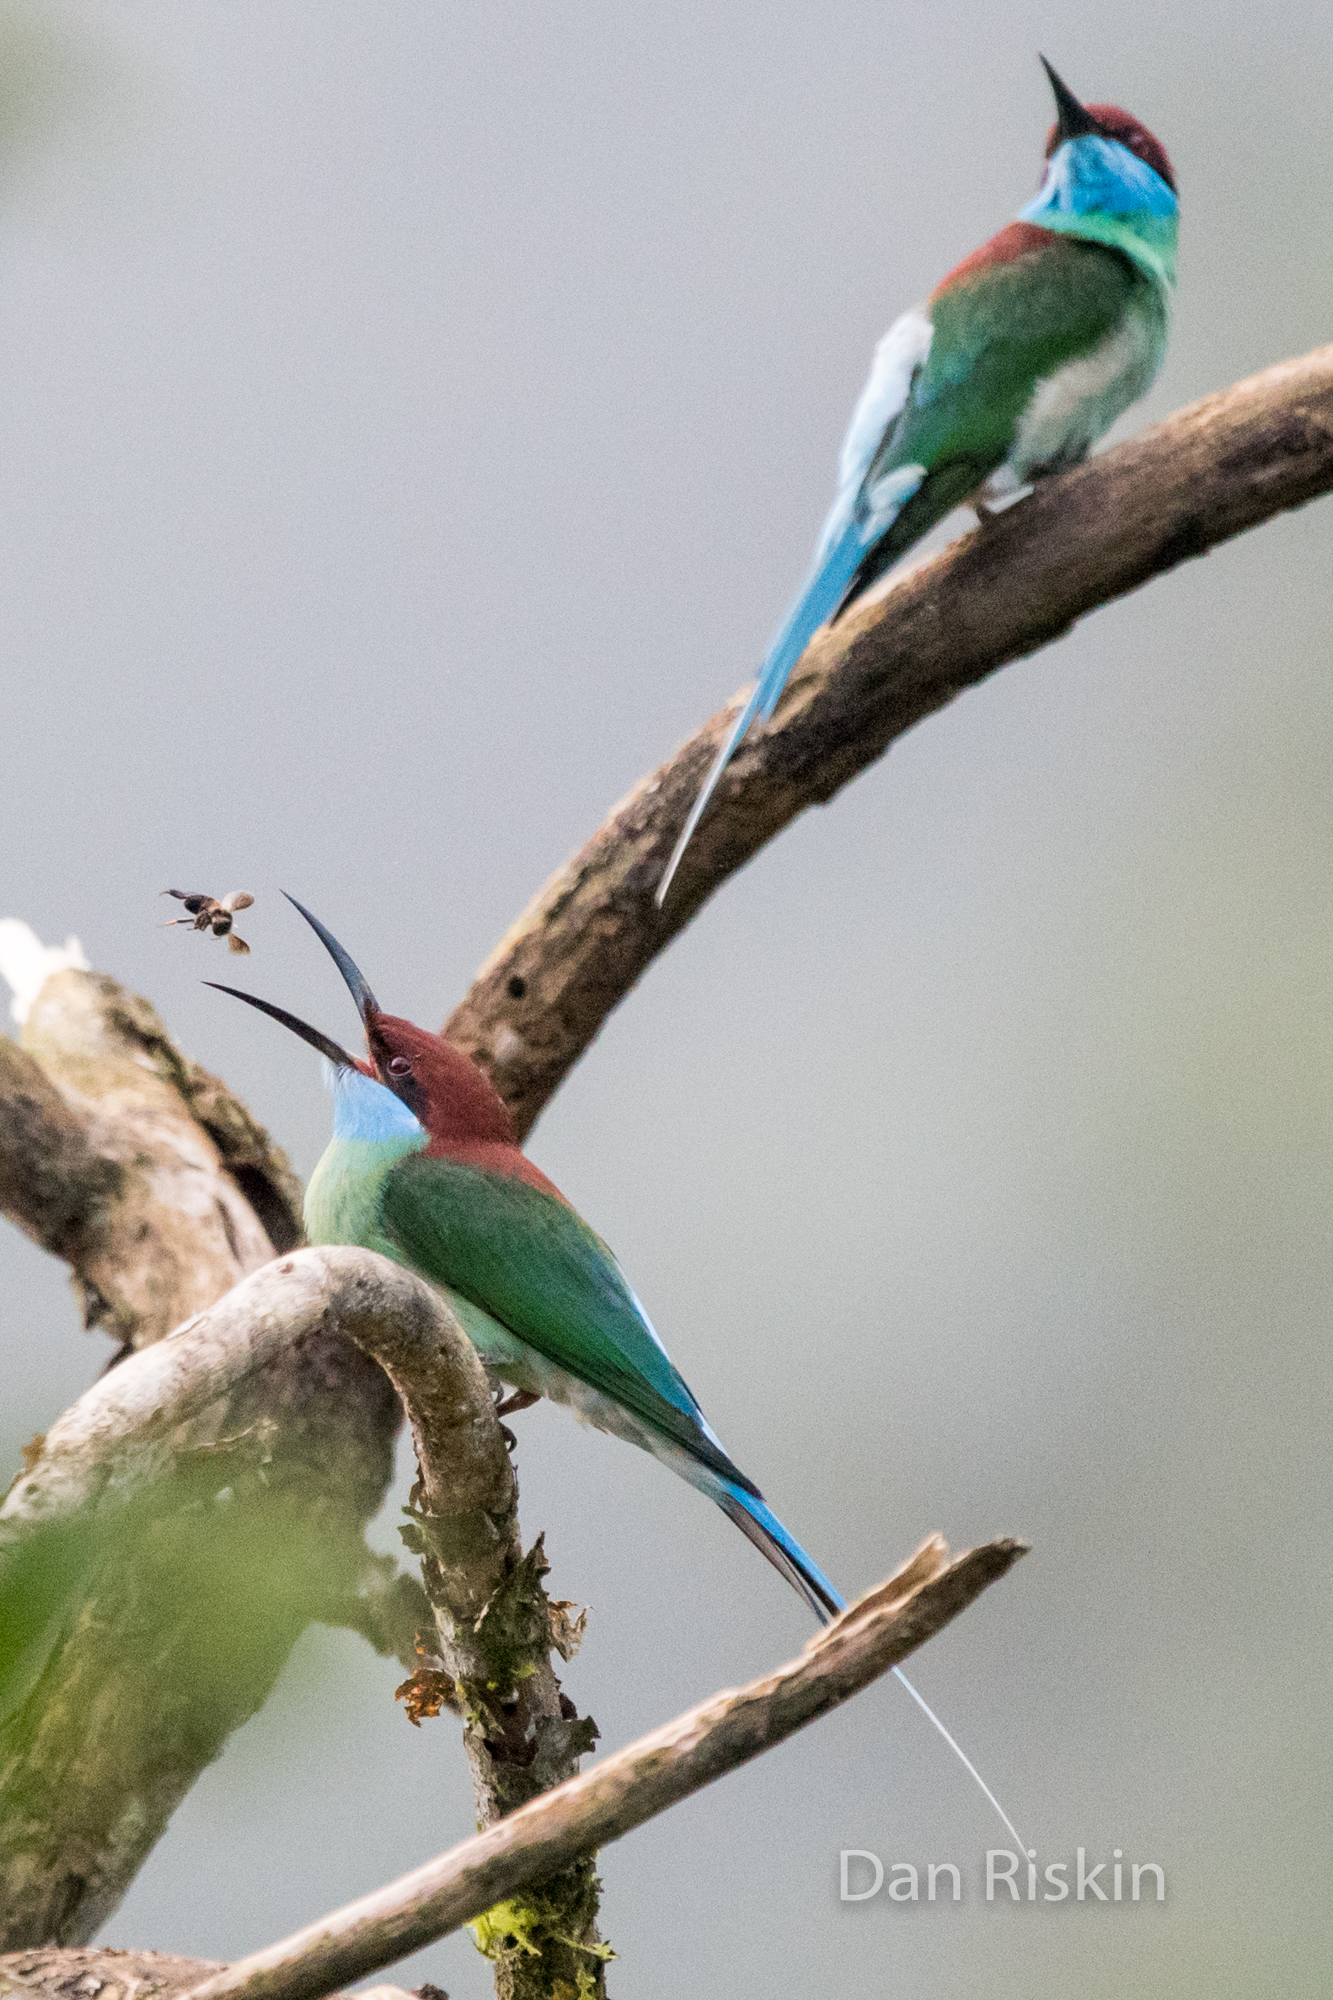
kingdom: Animalia
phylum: Chordata
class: Aves
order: Coraciiformes
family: Meropidae
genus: Merops
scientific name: Merops viridis
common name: Blue-throated bee-eater
